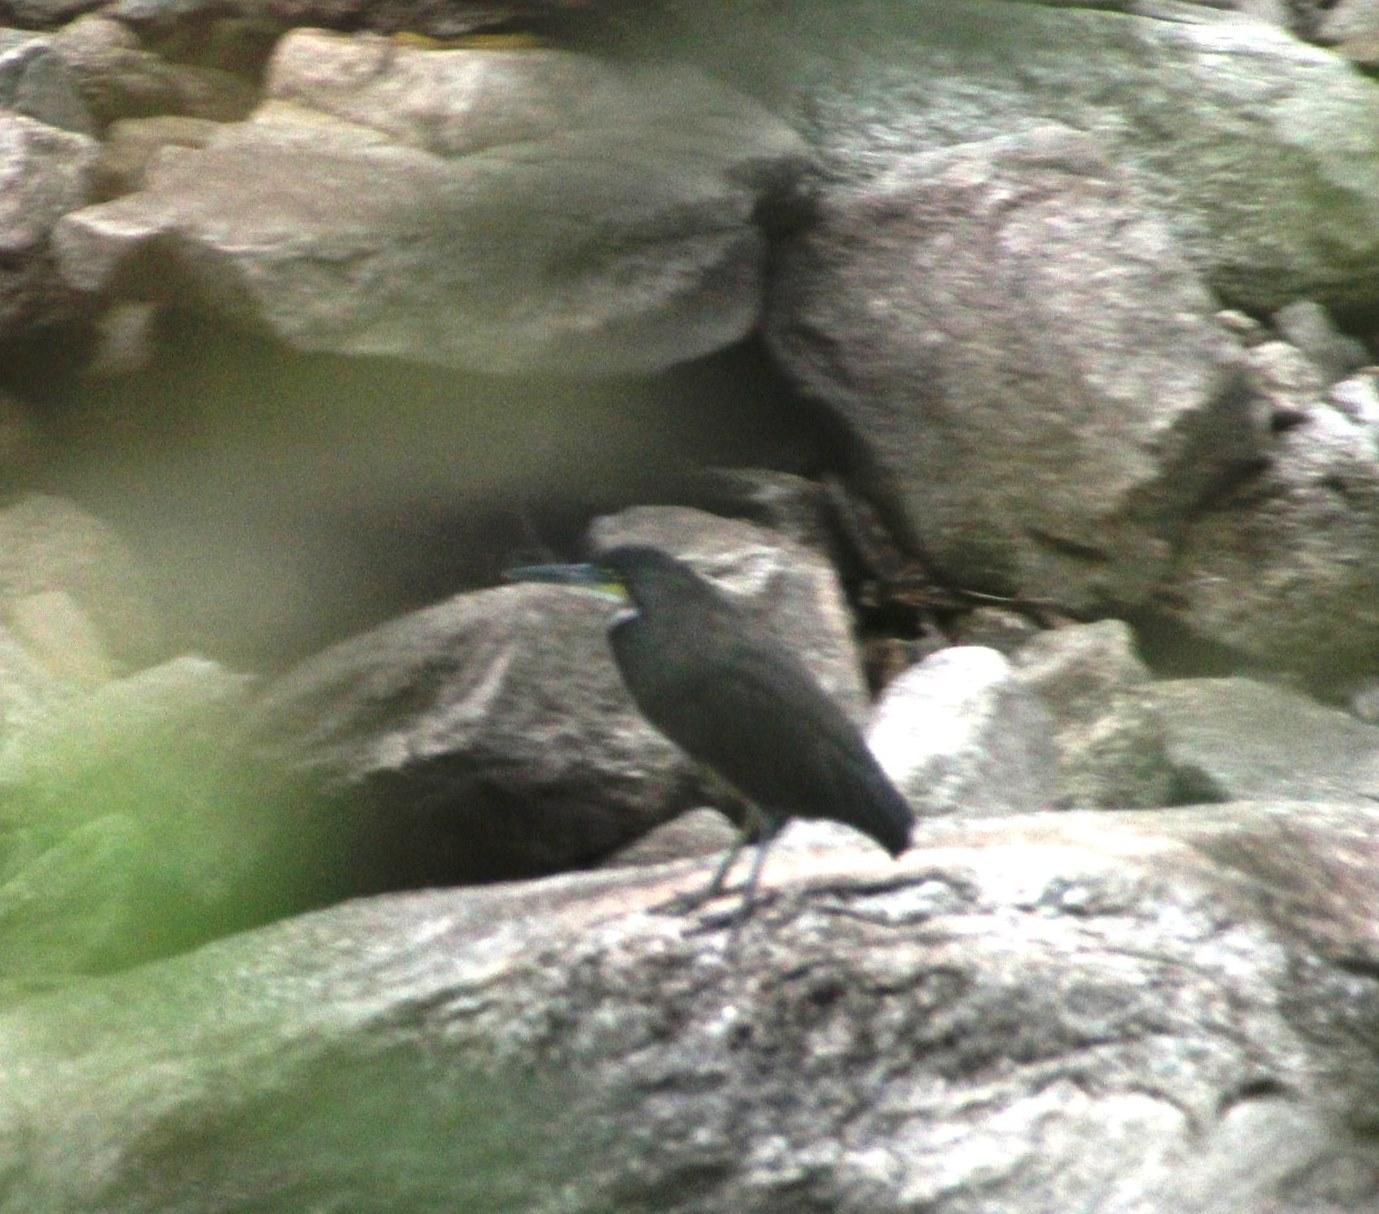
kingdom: Animalia
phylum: Chordata
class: Aves
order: Pelecaniformes
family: Ardeidae
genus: Tigrisoma
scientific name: Tigrisoma fasciatum
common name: Fasciated tiger-heron
